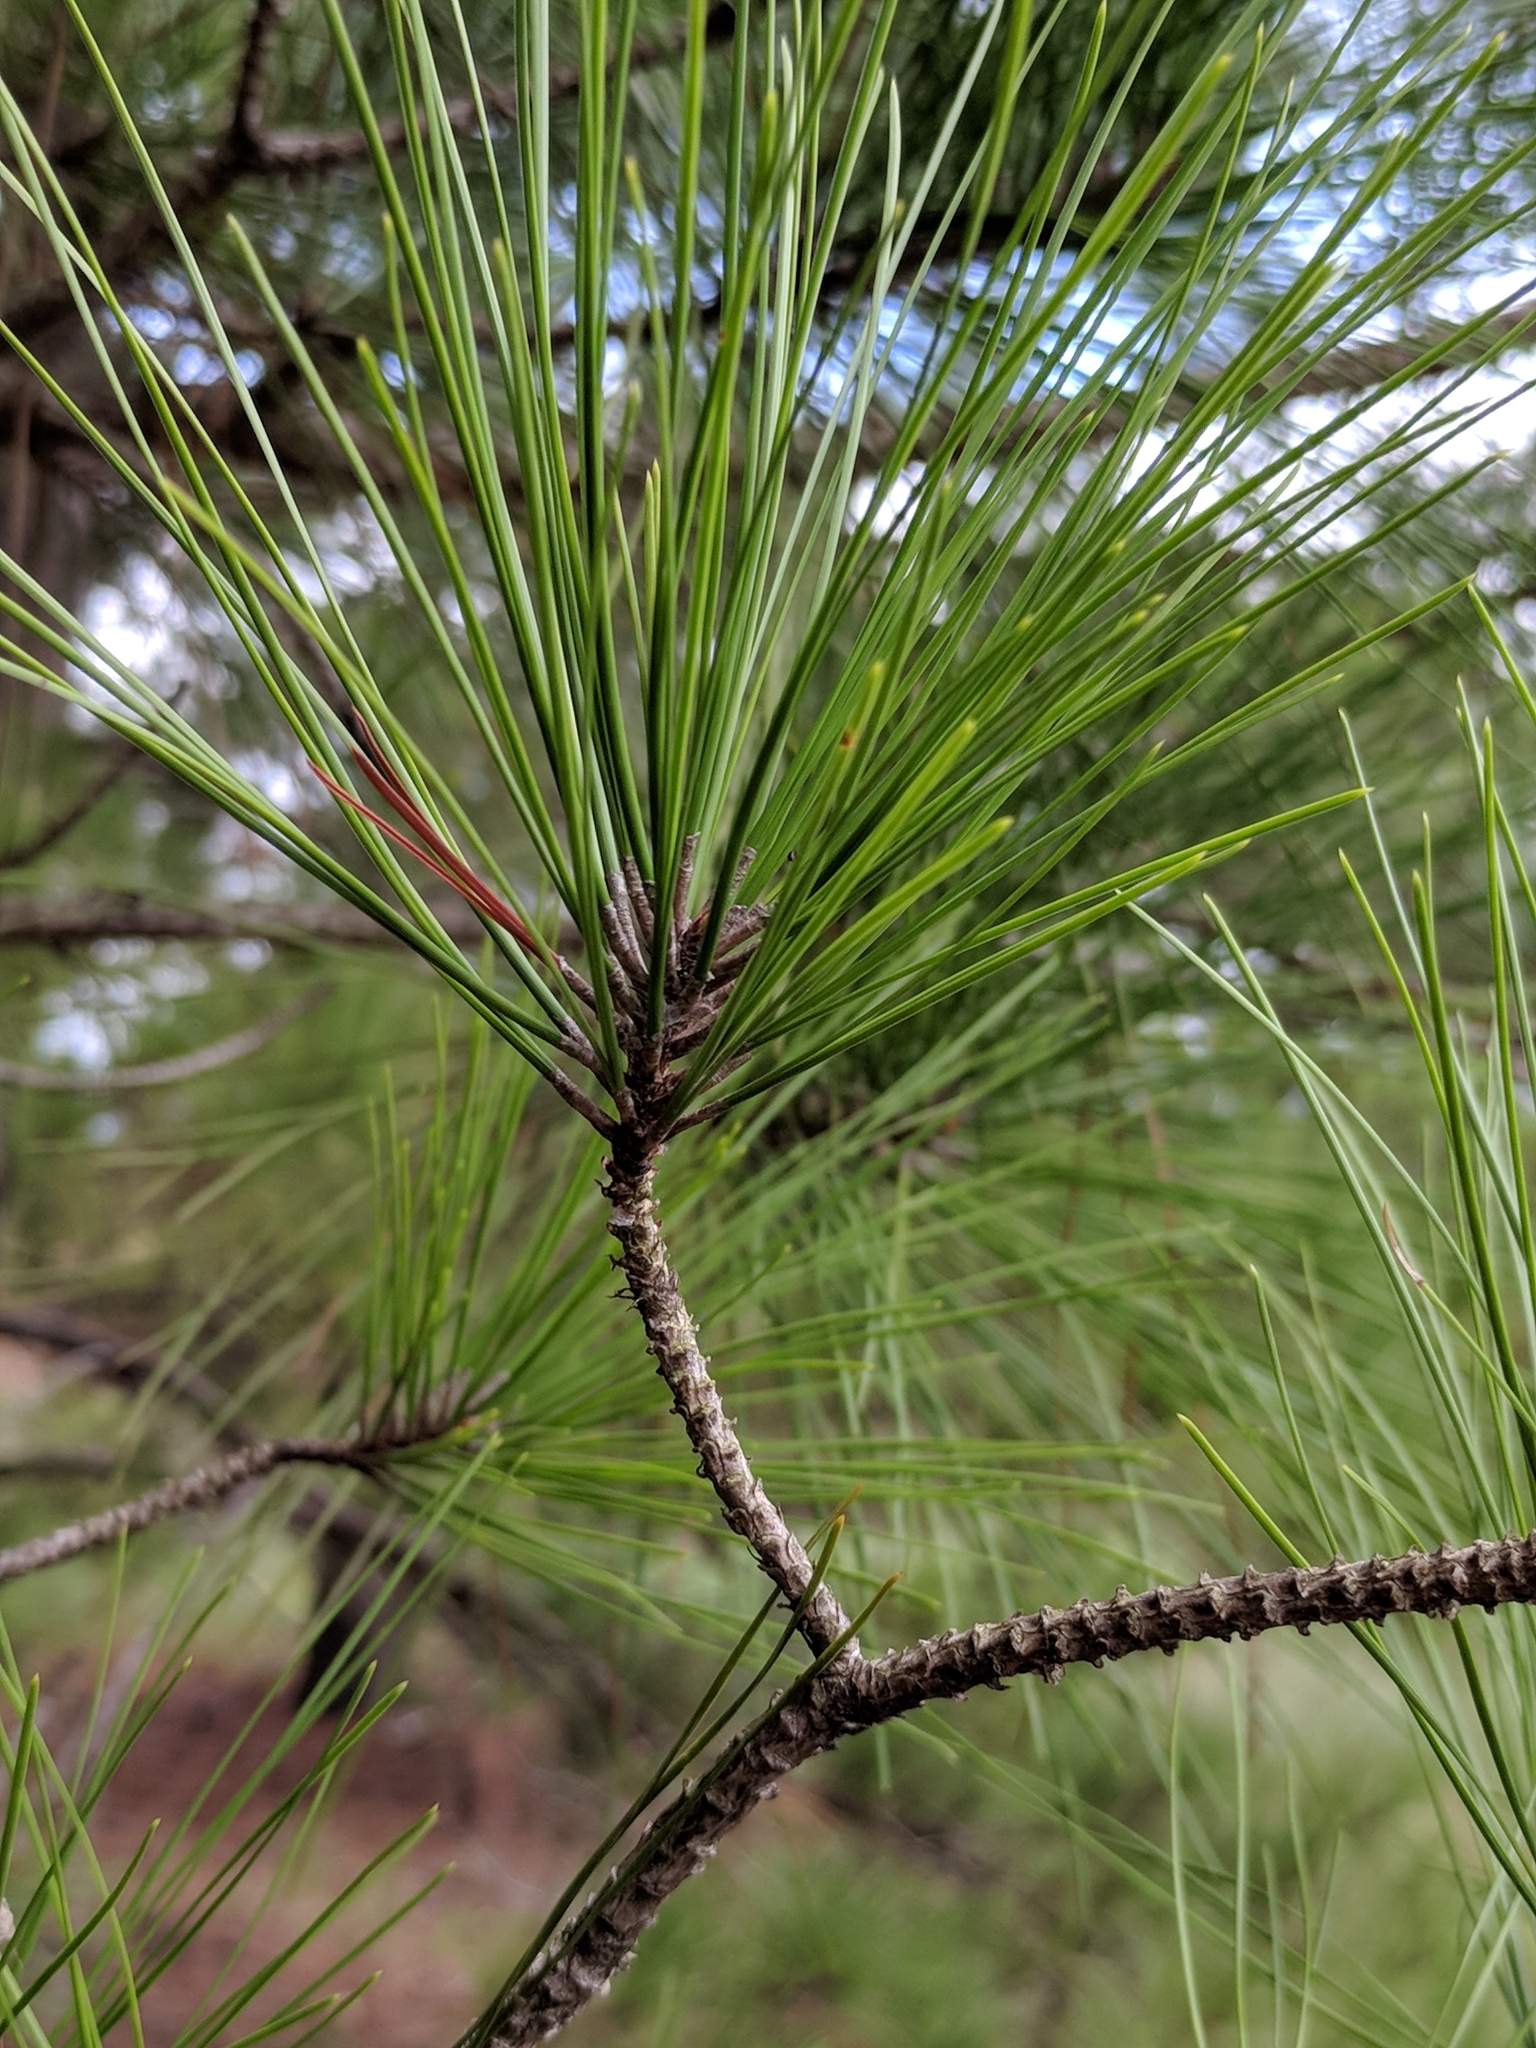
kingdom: Plantae
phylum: Tracheophyta
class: Pinopsida
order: Pinales
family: Pinaceae
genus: Pinus
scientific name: Pinus taeda
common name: Loblolly pine
